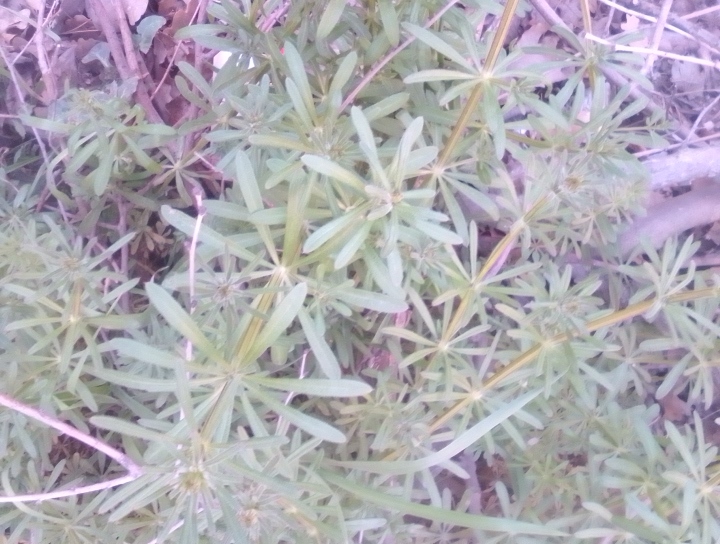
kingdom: Plantae
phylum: Tracheophyta
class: Magnoliopsida
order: Gentianales
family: Rubiaceae
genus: Galium
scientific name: Galium aparine
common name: Cleavers
